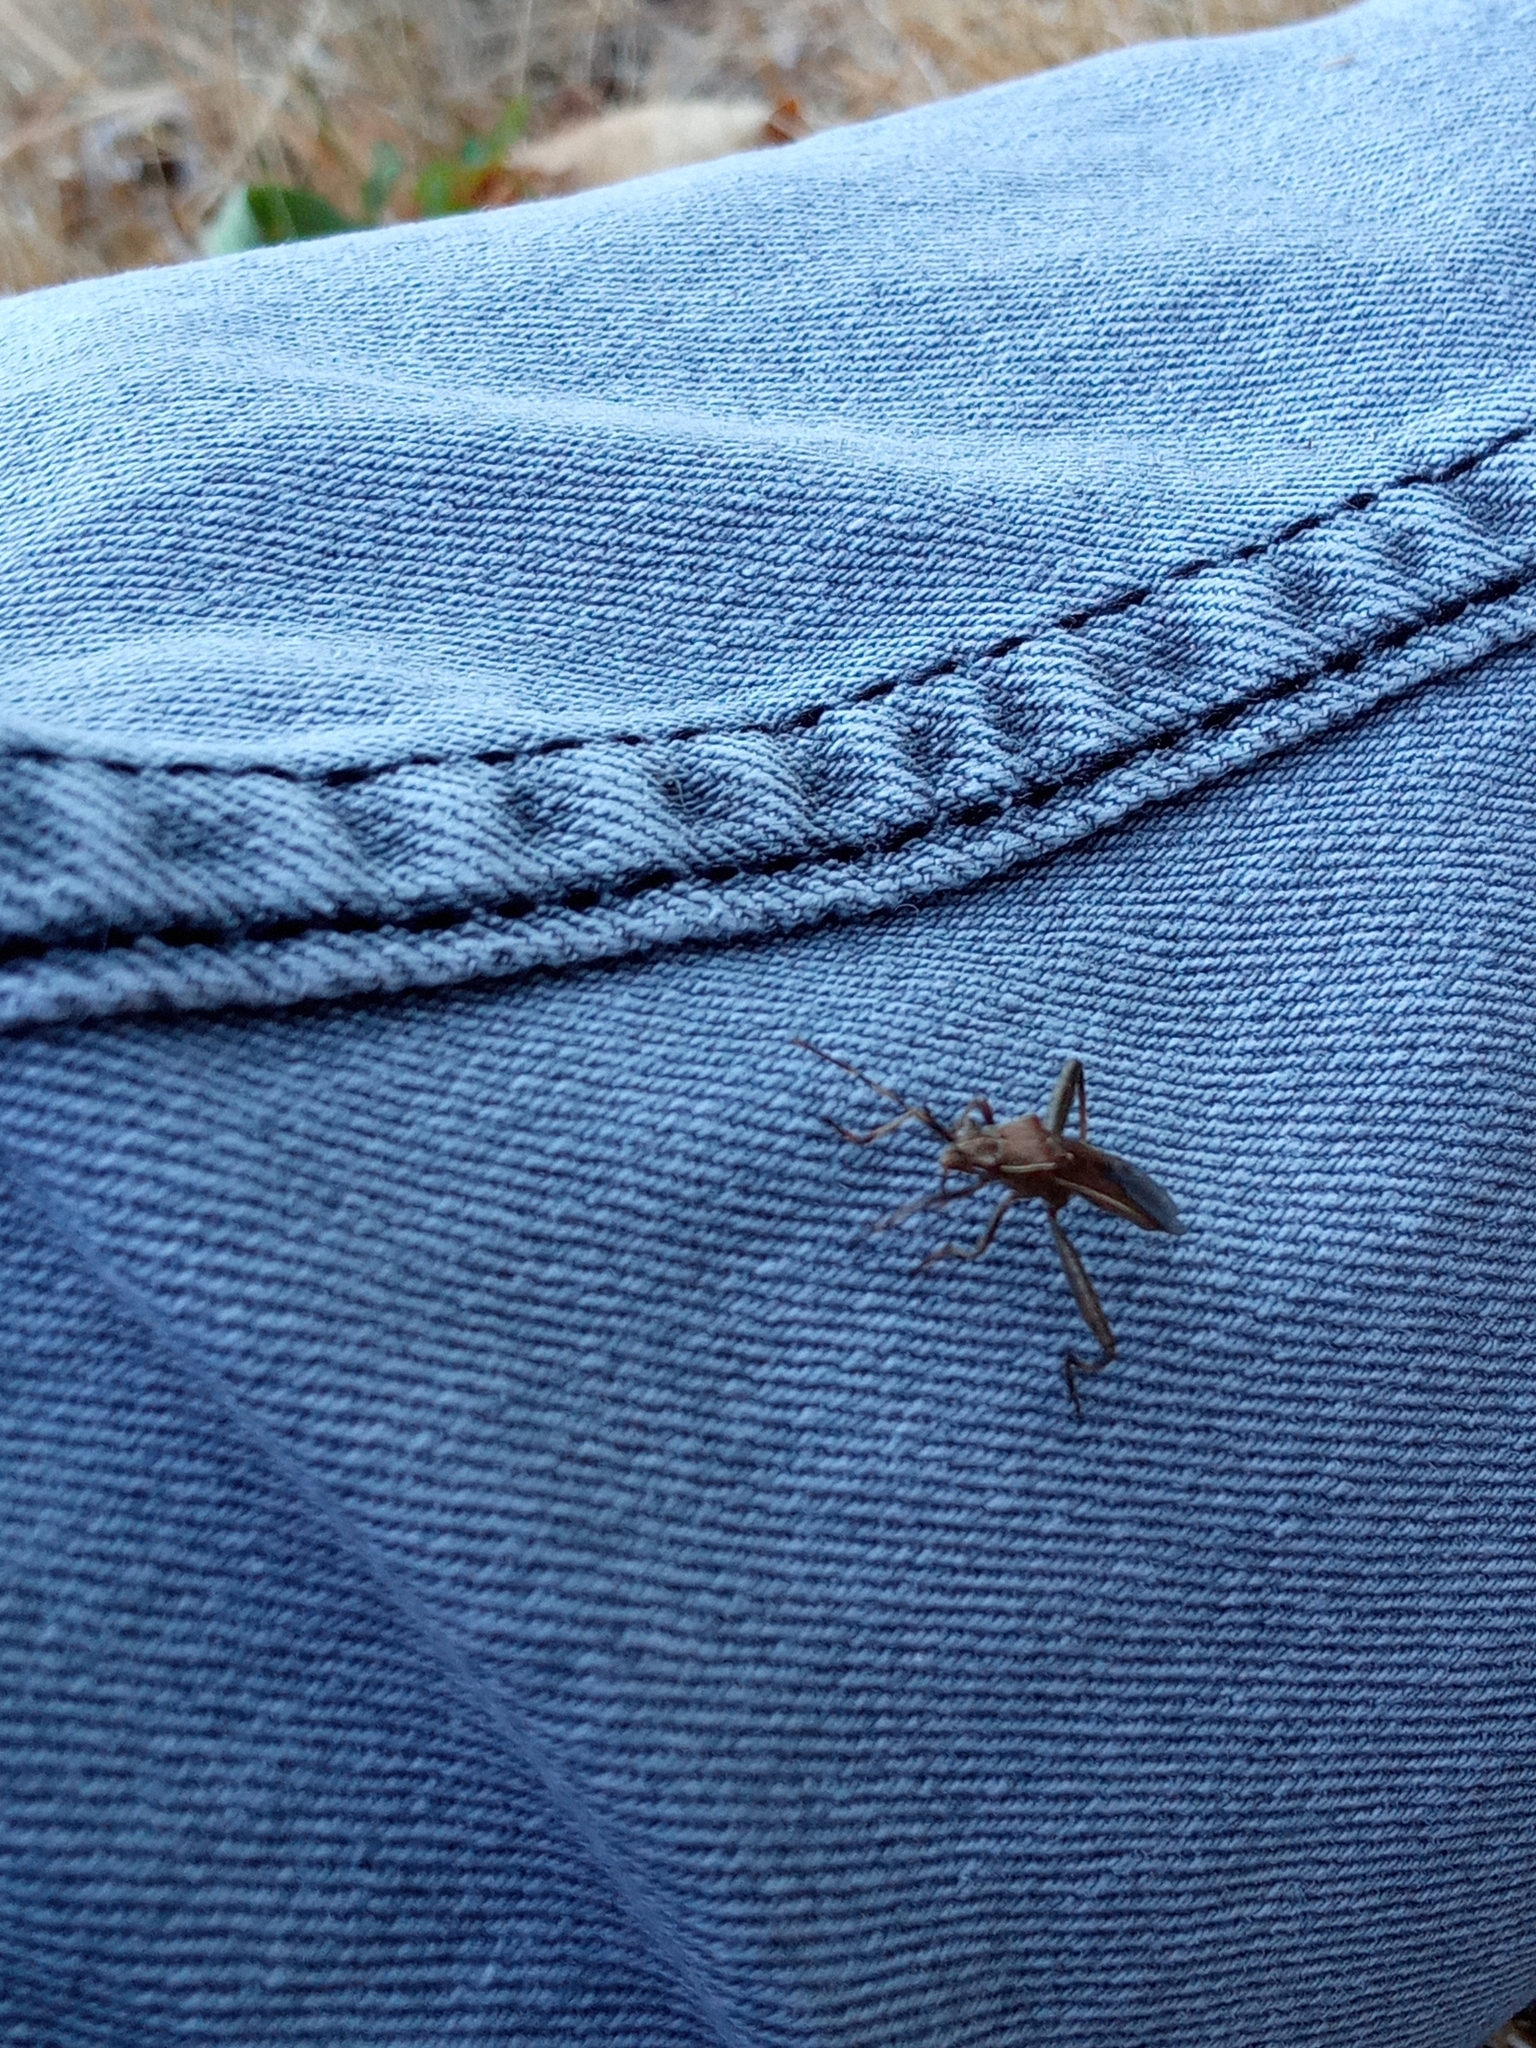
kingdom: Animalia
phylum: Arthropoda
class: Insecta
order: Hemiptera
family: Alydidae
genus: Camptopus
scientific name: Camptopus lateralis
